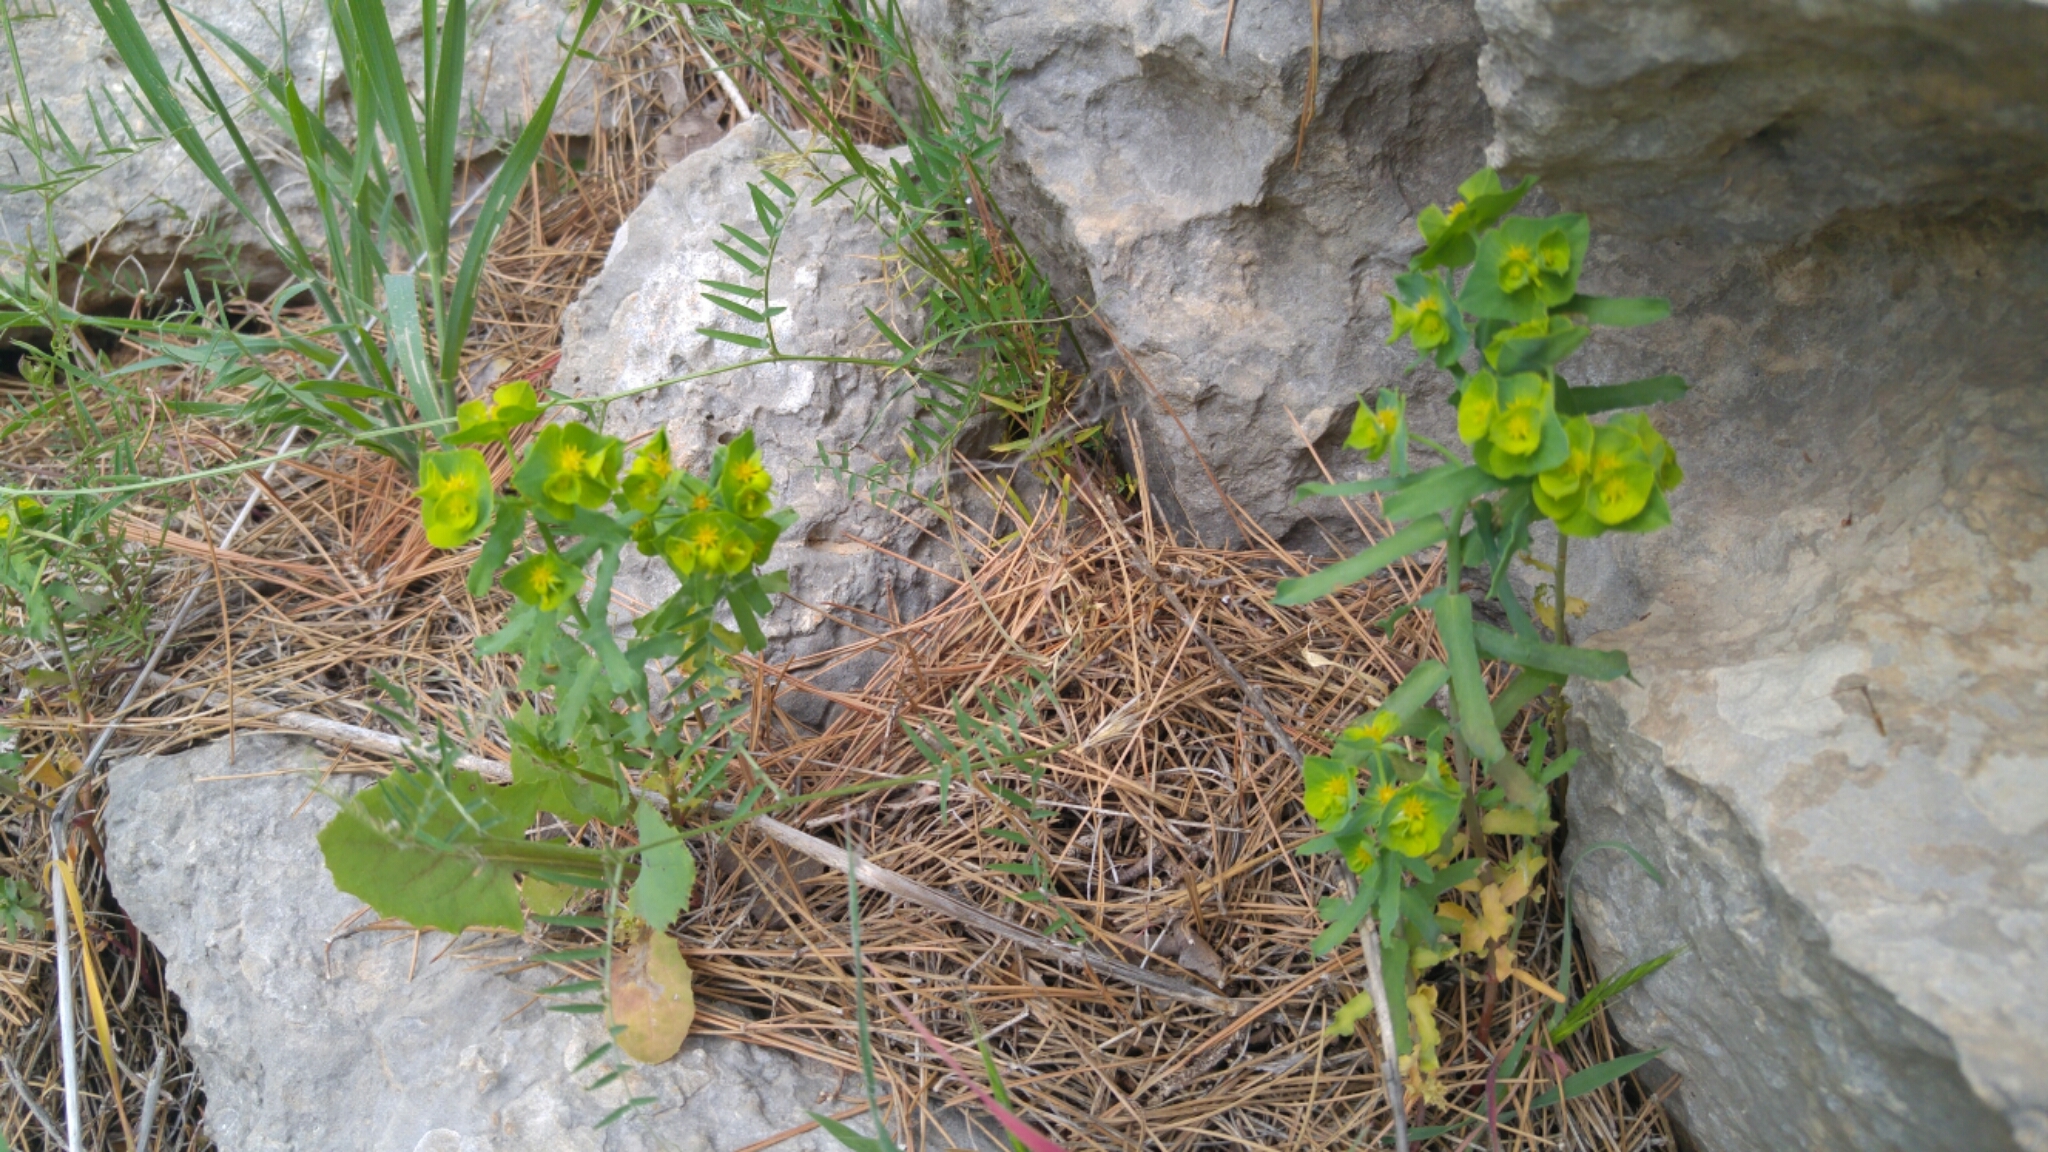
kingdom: Plantae
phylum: Tracheophyta
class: Magnoliopsida
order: Malpighiales
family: Euphorbiaceae
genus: Euphorbia
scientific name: Euphorbia reuteriana
